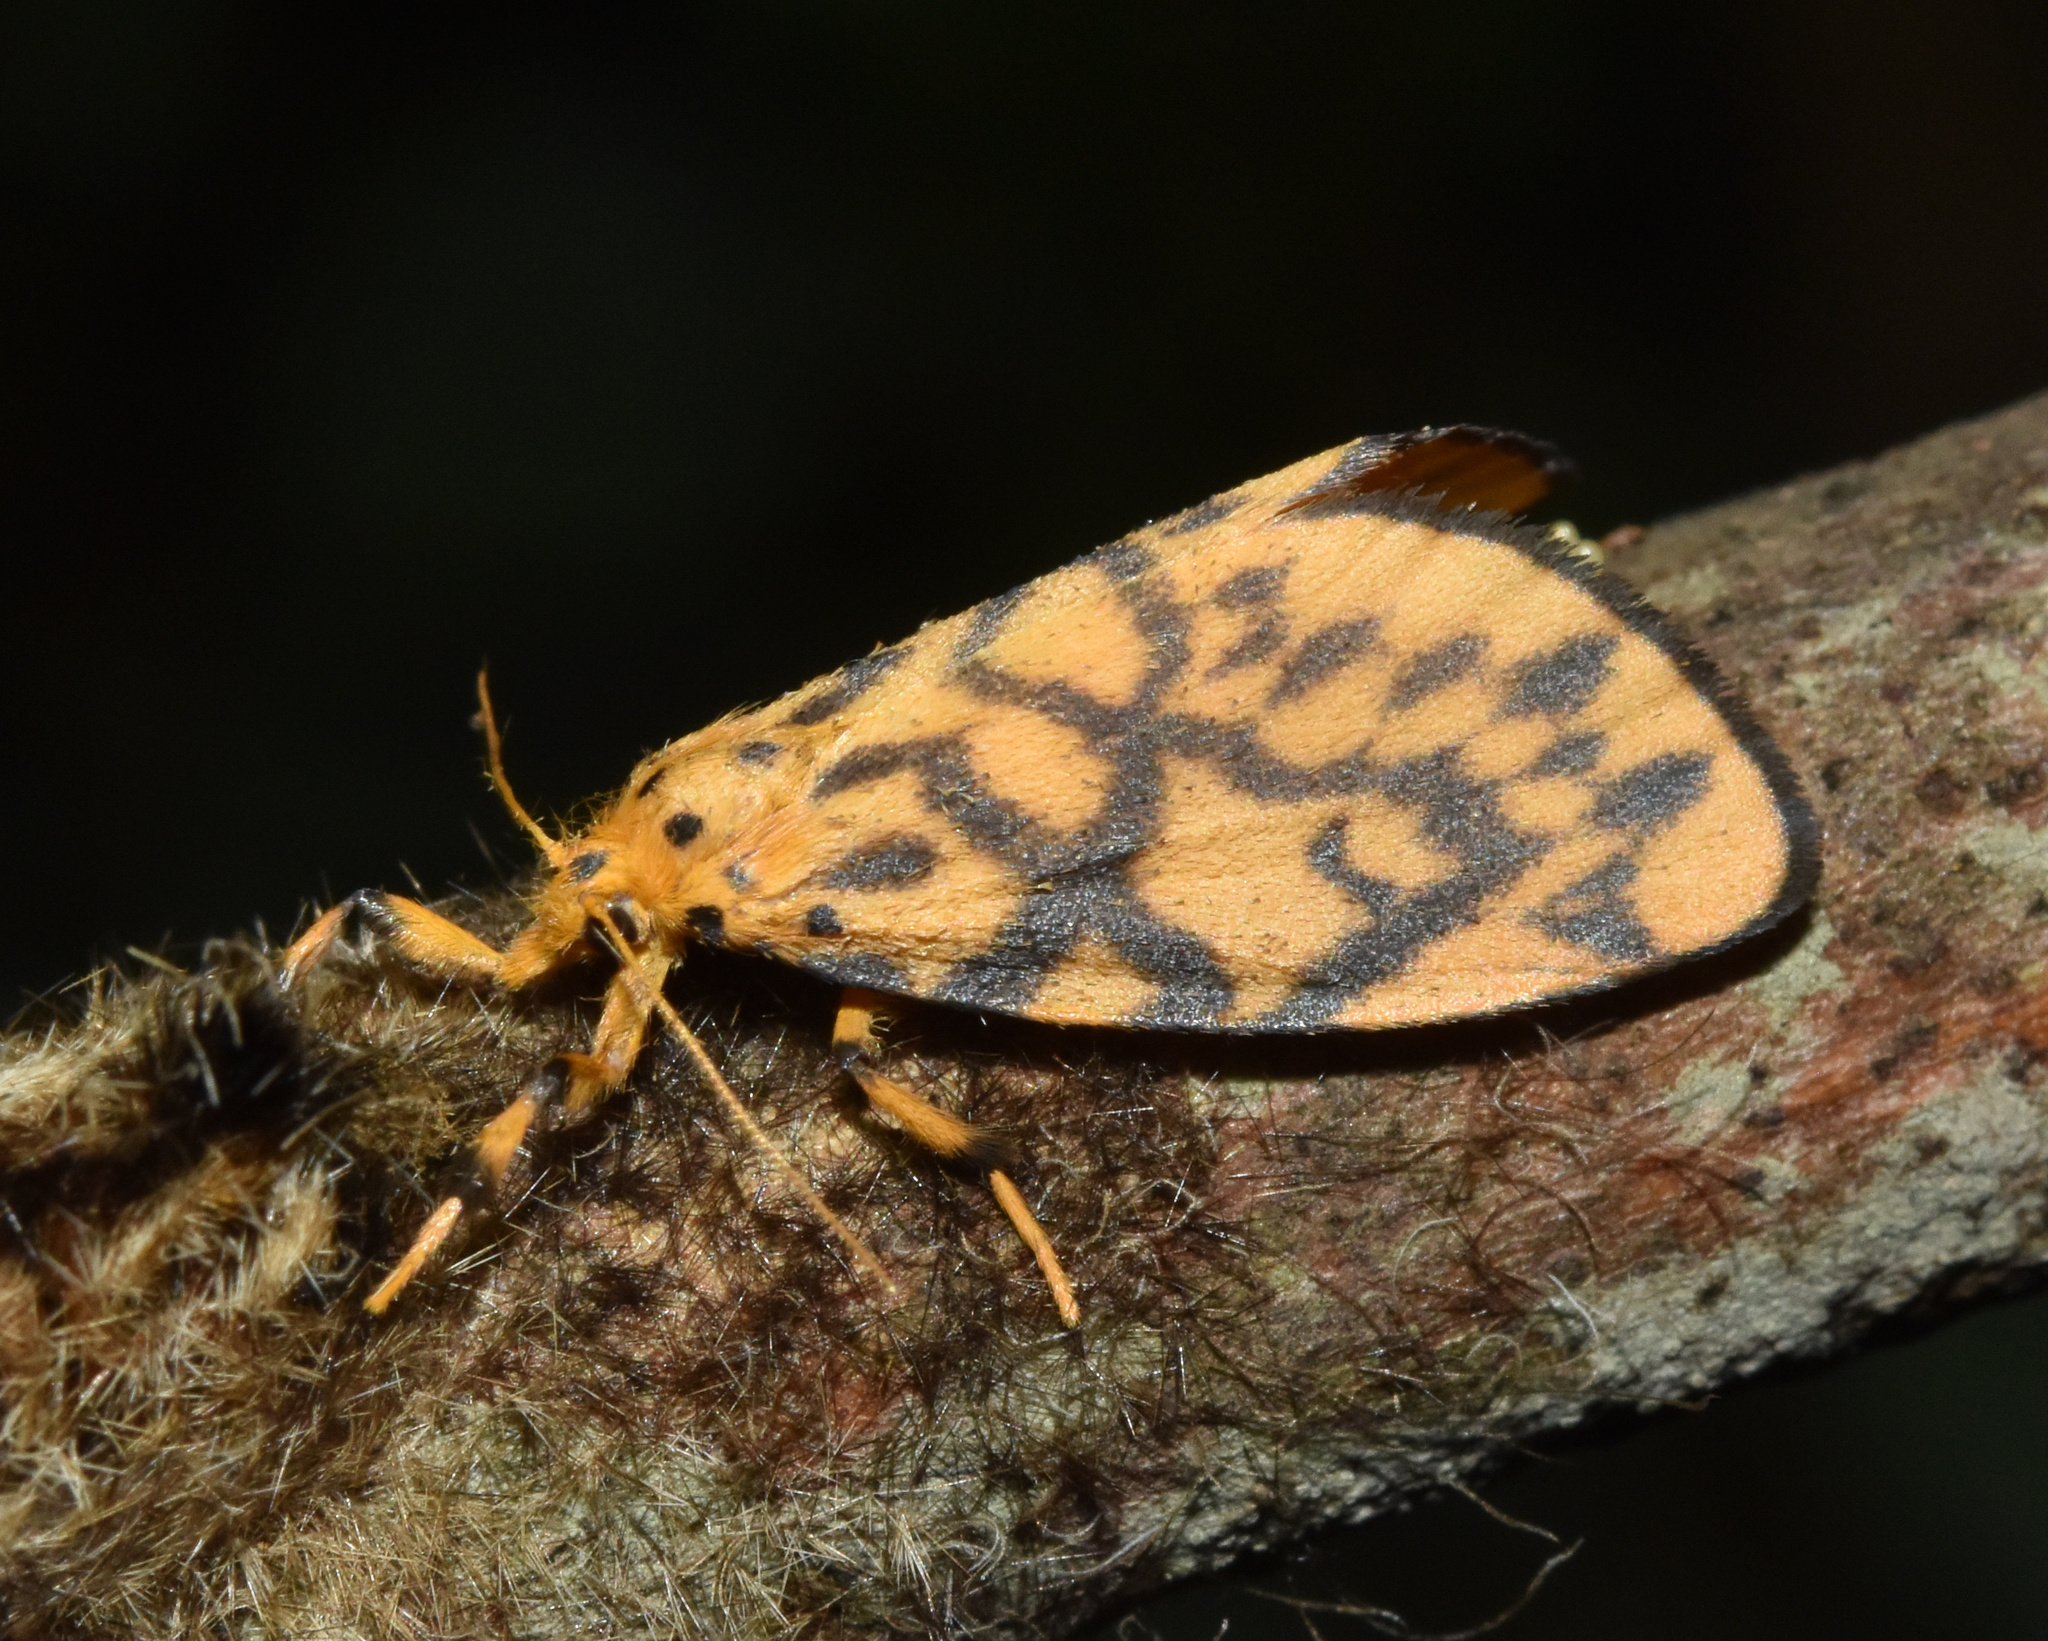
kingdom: Animalia
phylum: Arthropoda
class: Insecta
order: Lepidoptera
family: Erebidae
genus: Tumicla
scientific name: Tumicla sagenaria
